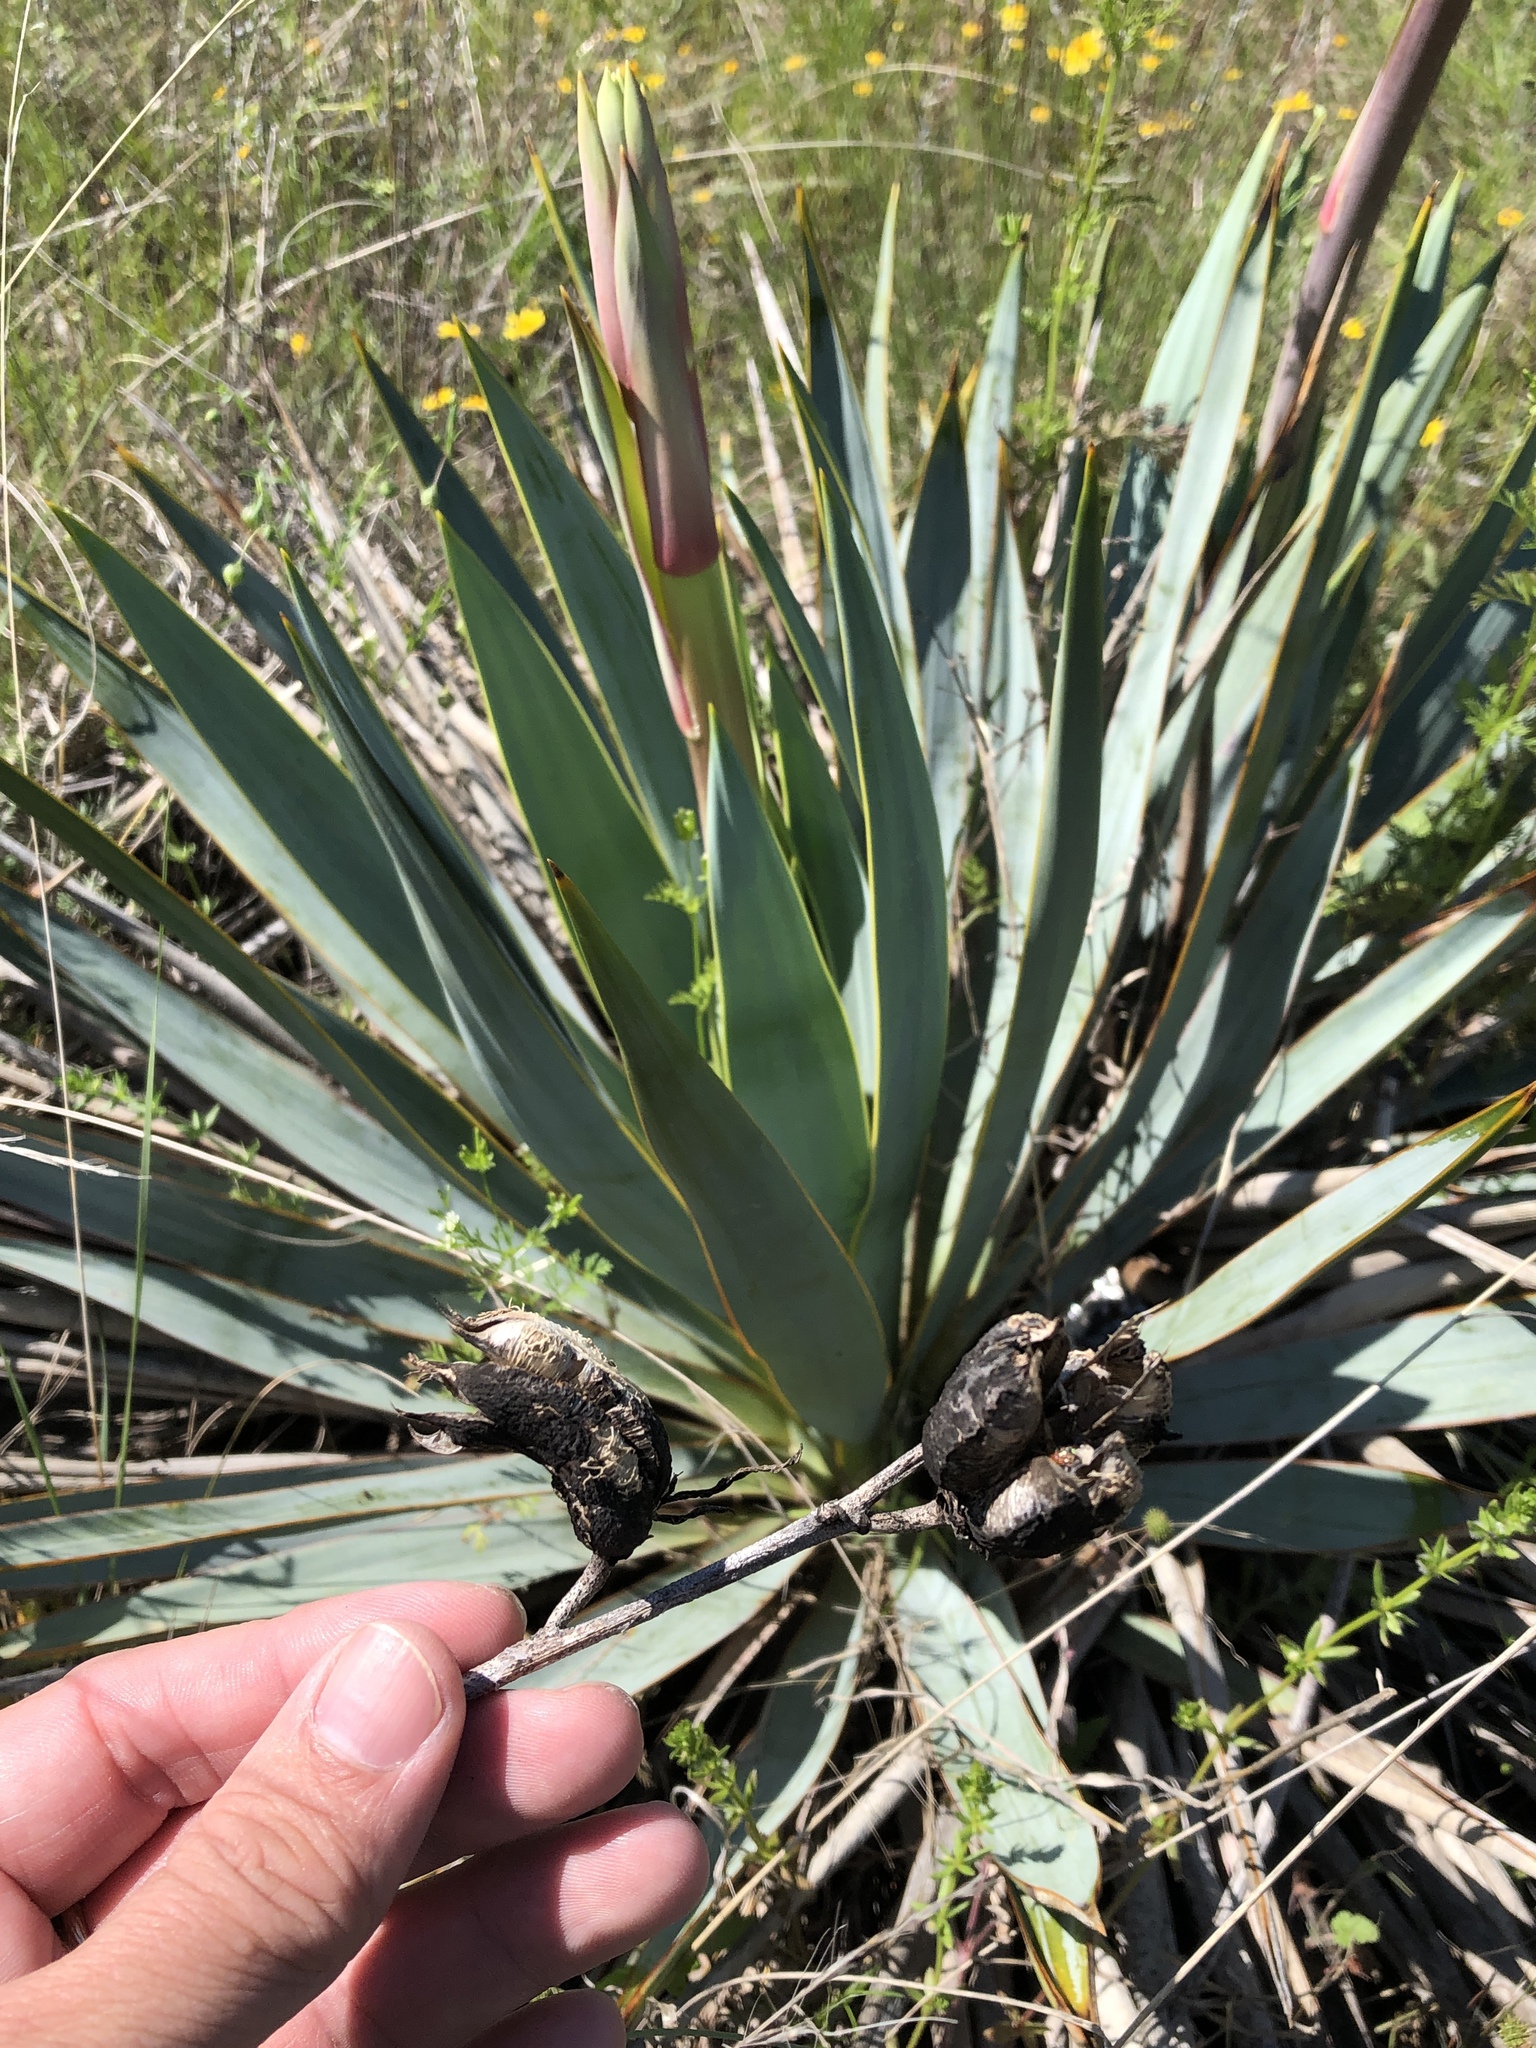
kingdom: Plantae
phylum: Tracheophyta
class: Liliopsida
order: Asparagales
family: Asparagaceae
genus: Yucca
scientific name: Yucca pallida
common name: Pale leaf yucca
